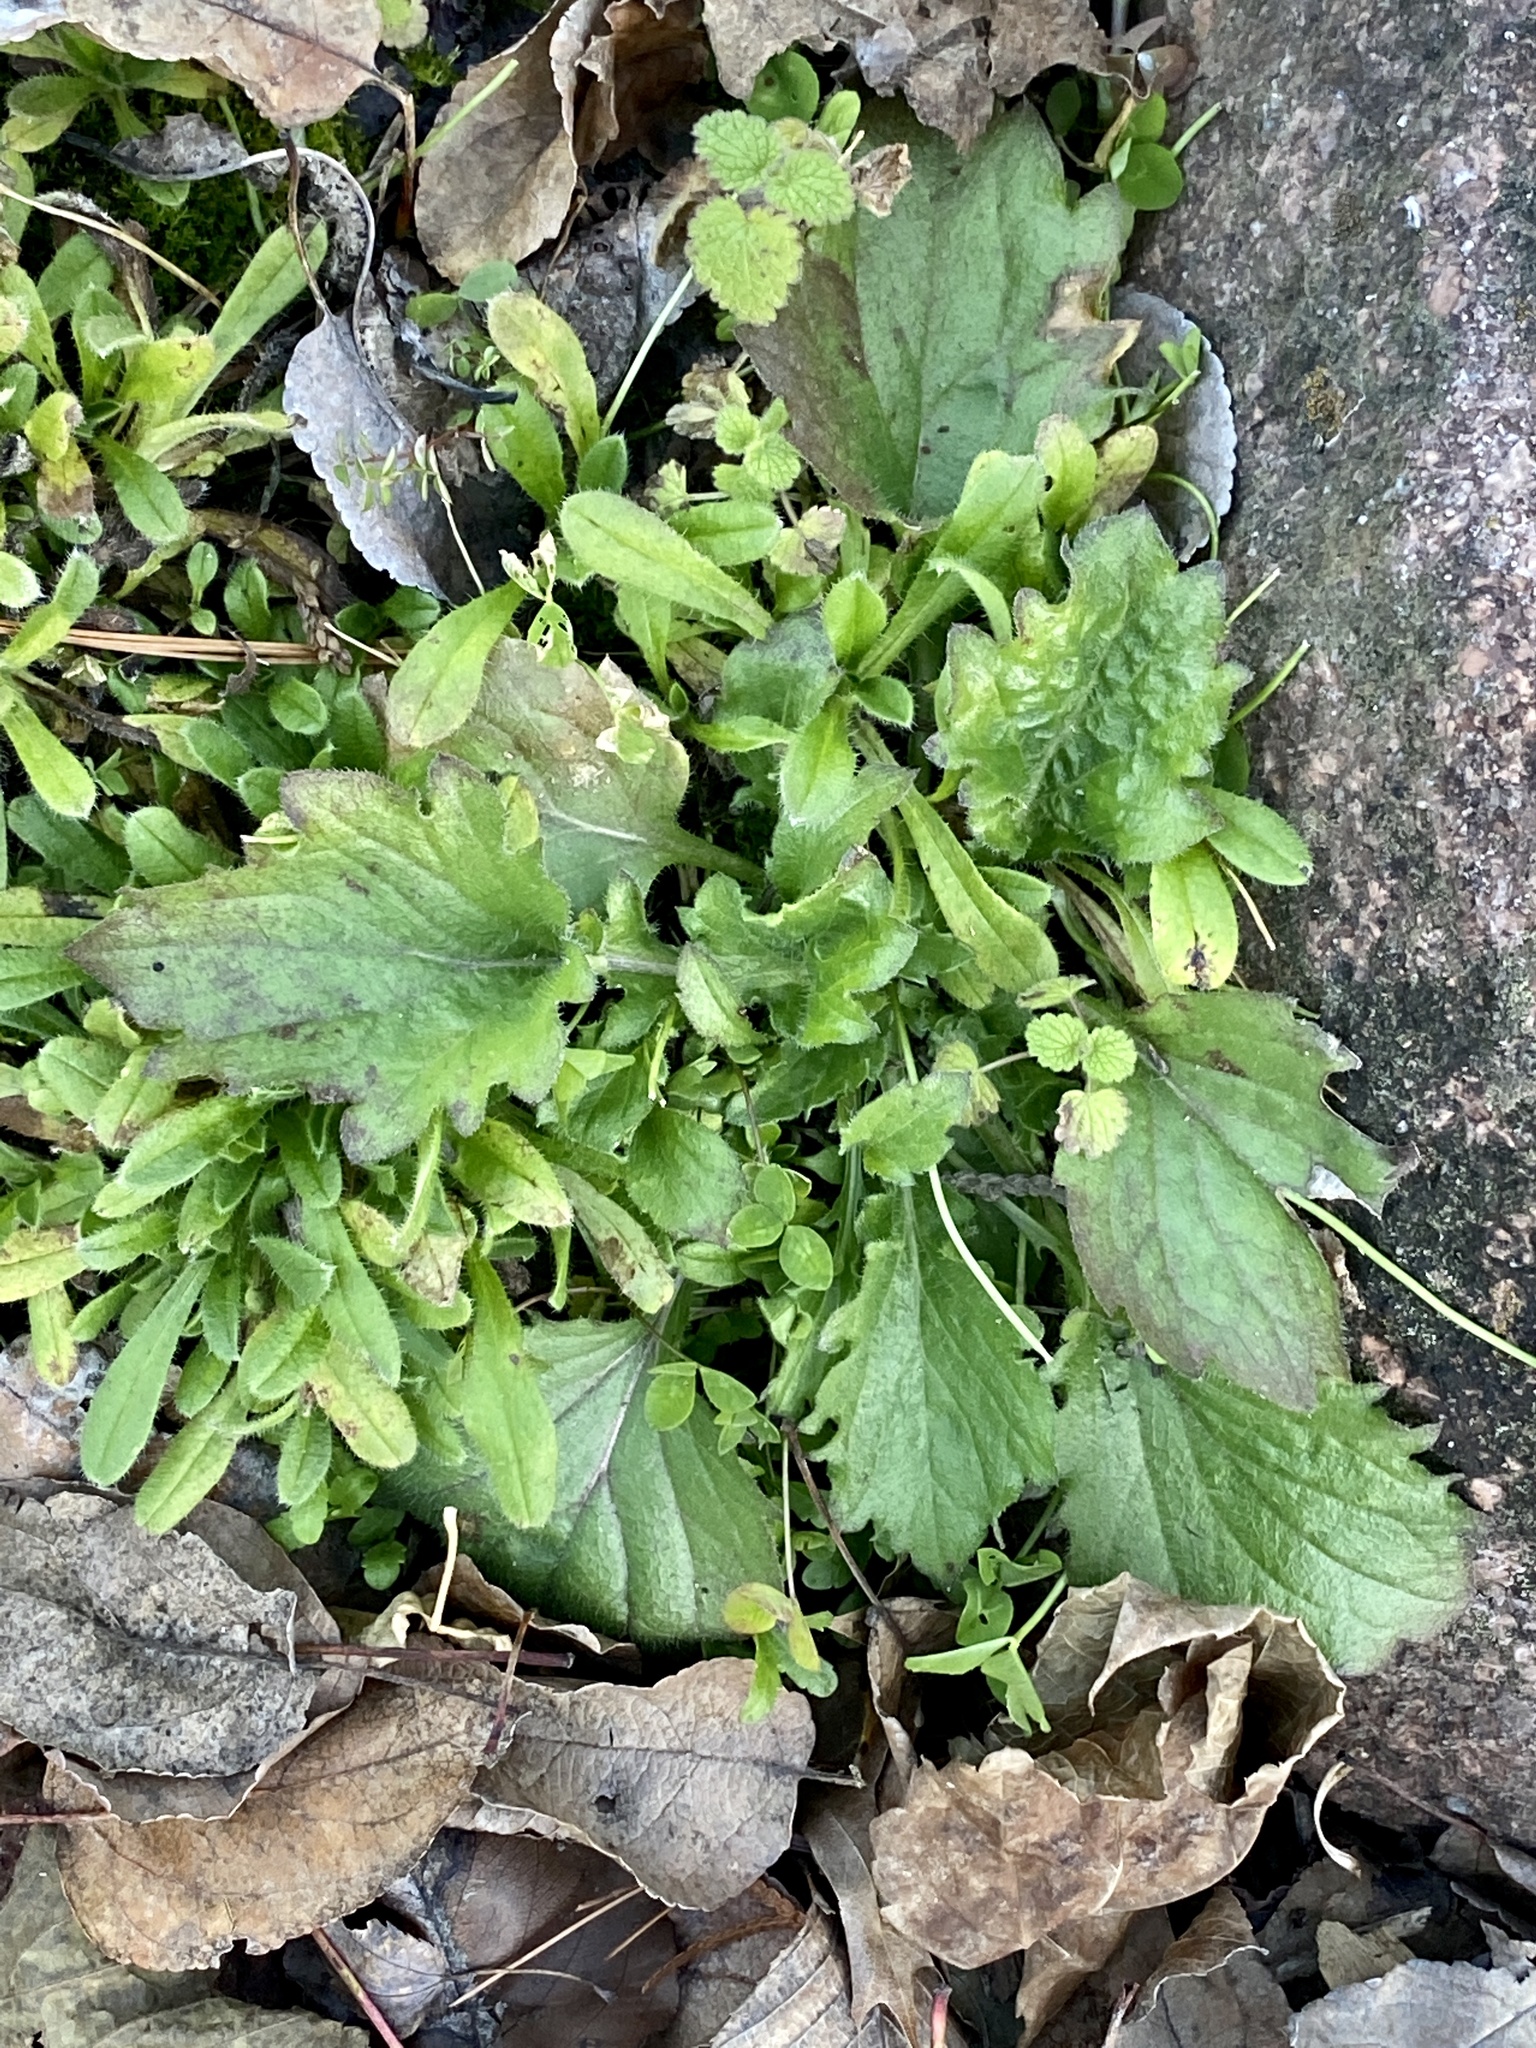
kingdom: Plantae
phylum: Tracheophyta
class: Magnoliopsida
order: Asterales
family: Asteraceae
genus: Erigeron
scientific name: Erigeron annuus
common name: Tall fleabane
